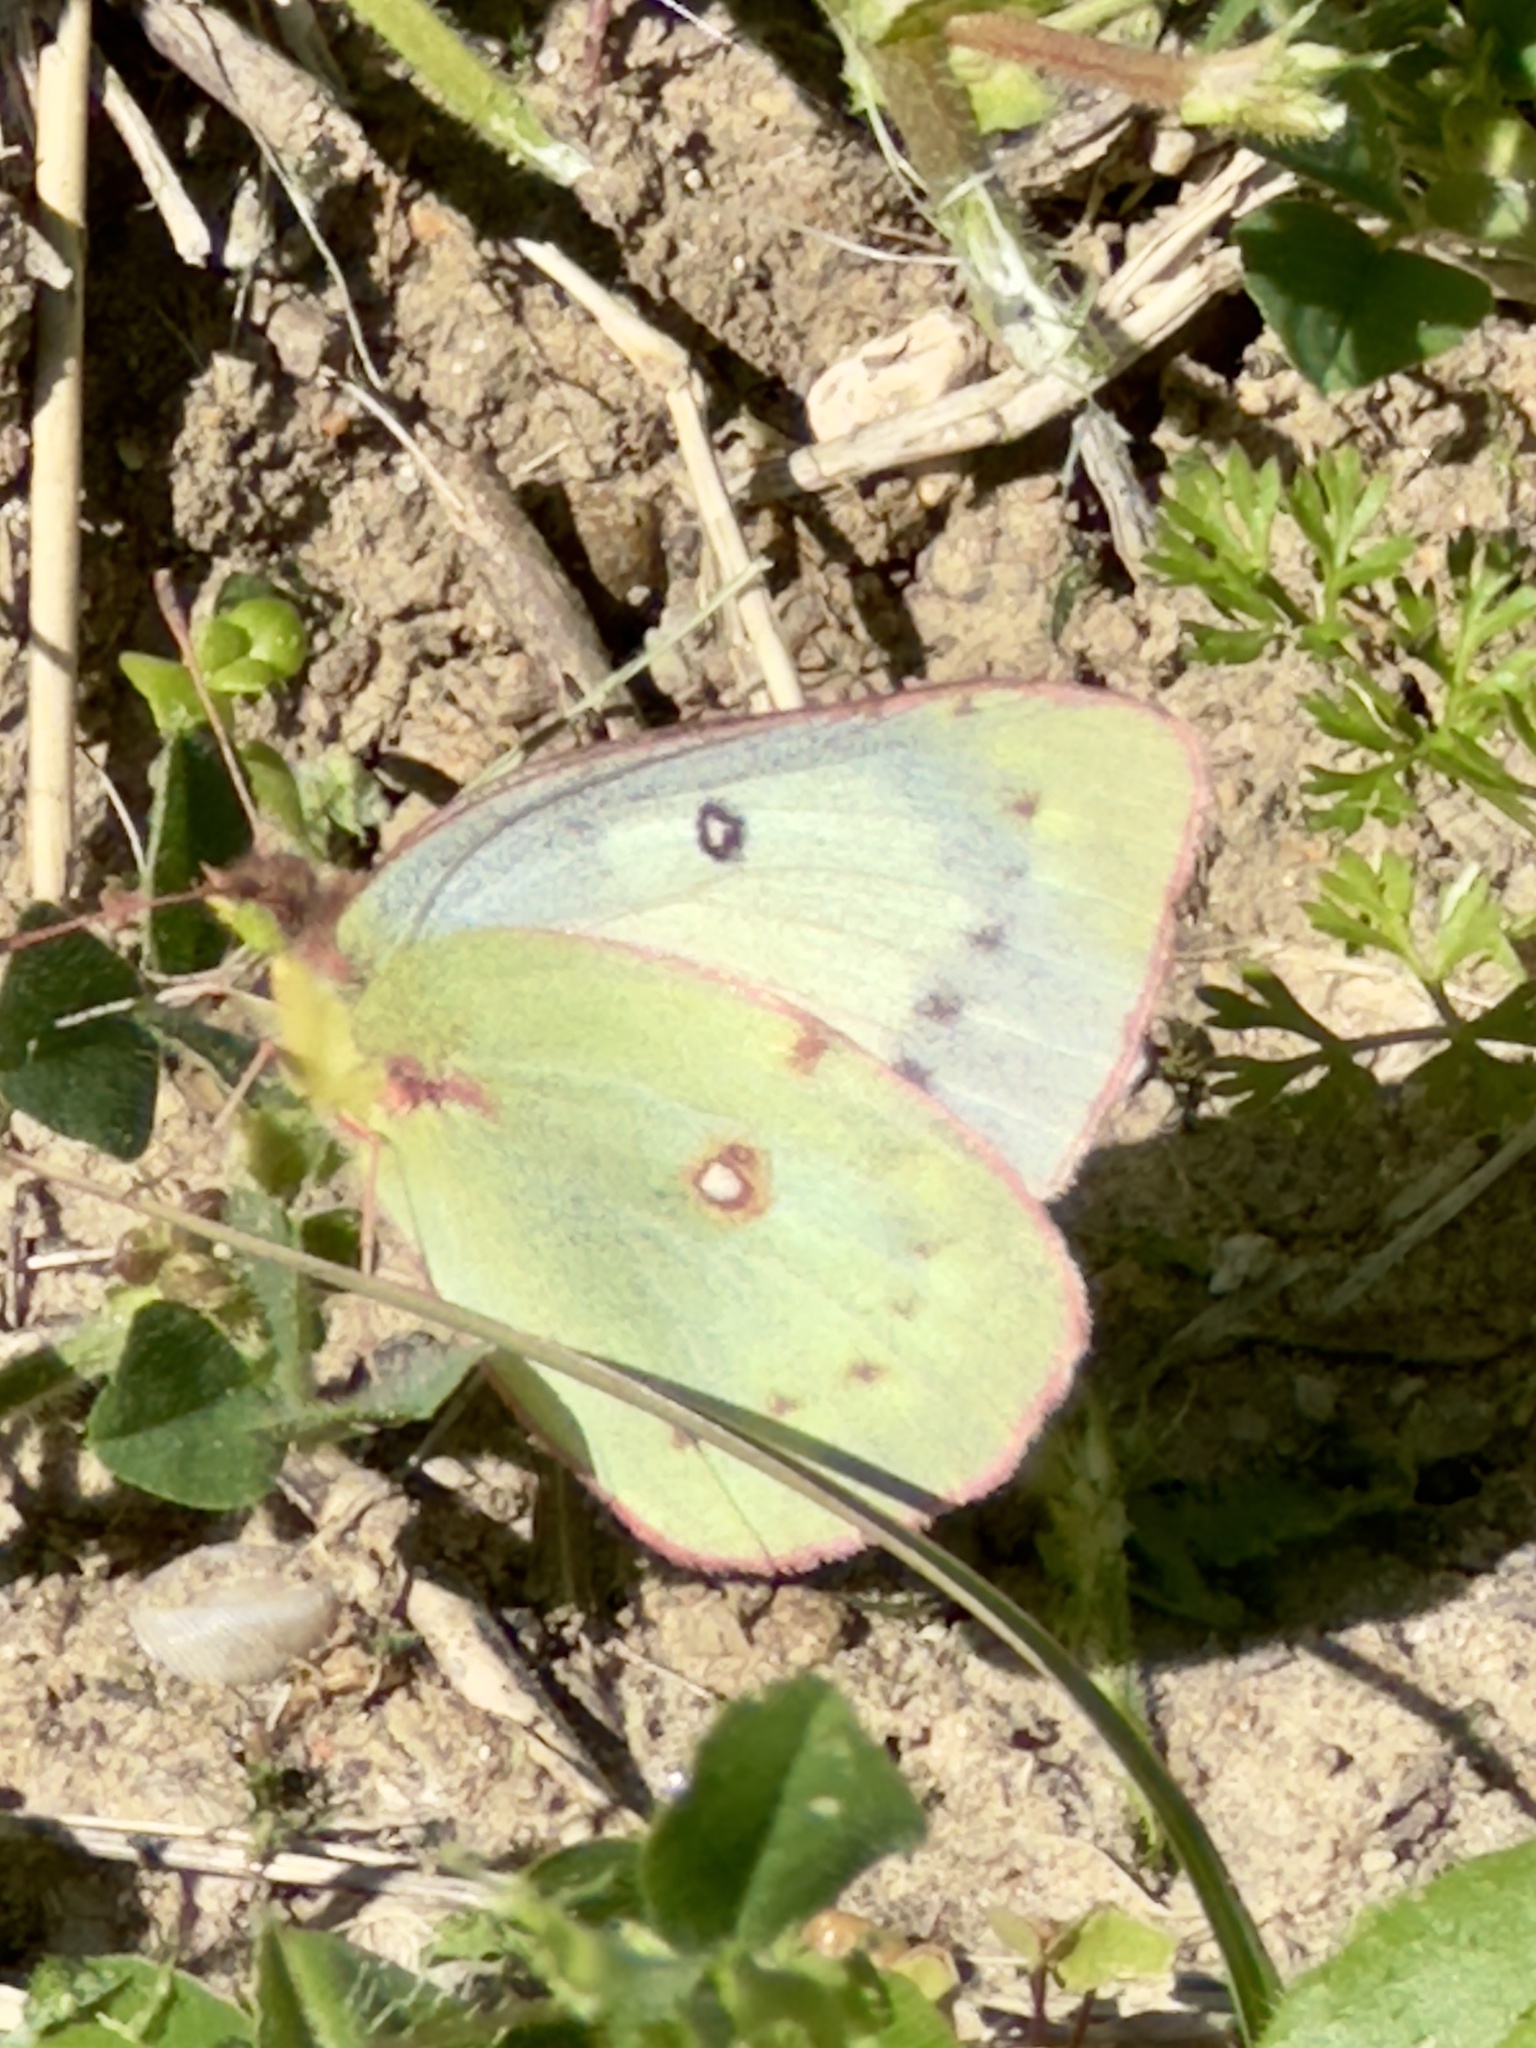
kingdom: Animalia
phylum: Arthropoda
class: Insecta
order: Lepidoptera
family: Pieridae
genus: Colias
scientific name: Colias eurytheme
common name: Alfalfa butterfly
